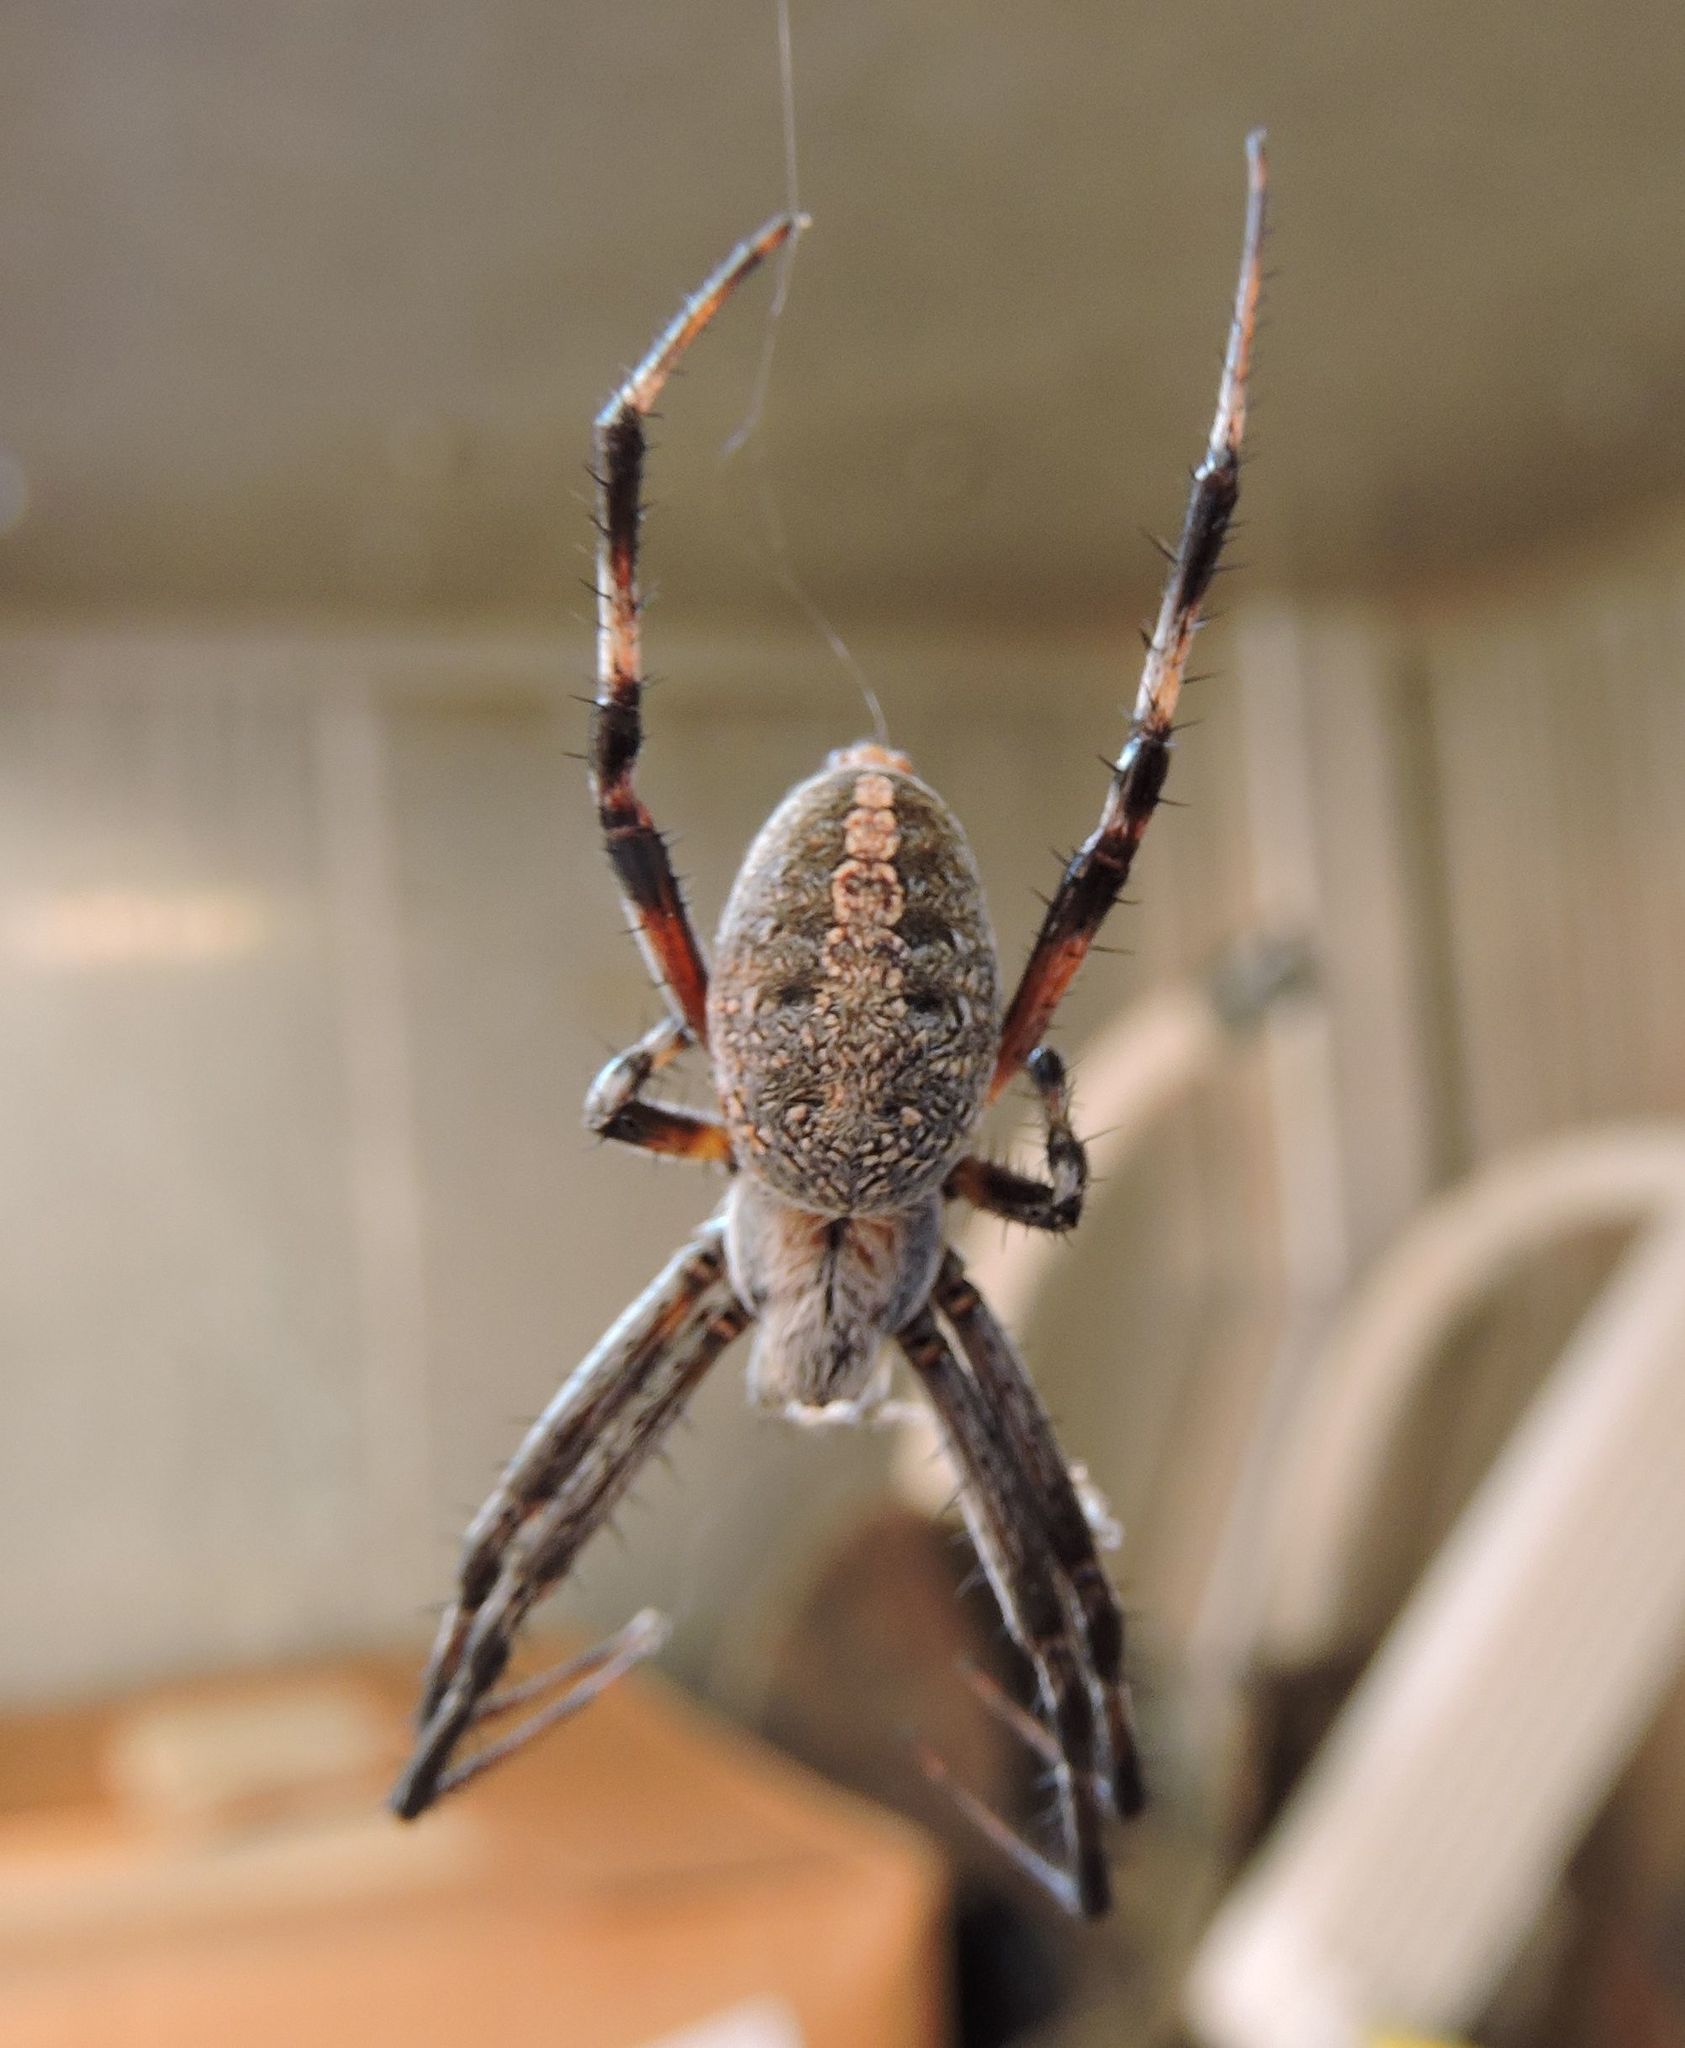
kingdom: Animalia
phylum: Arthropoda
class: Arachnida
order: Araneae
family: Araneidae
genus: Neoscona
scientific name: Neoscona oaxacensis
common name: Orb weavers
